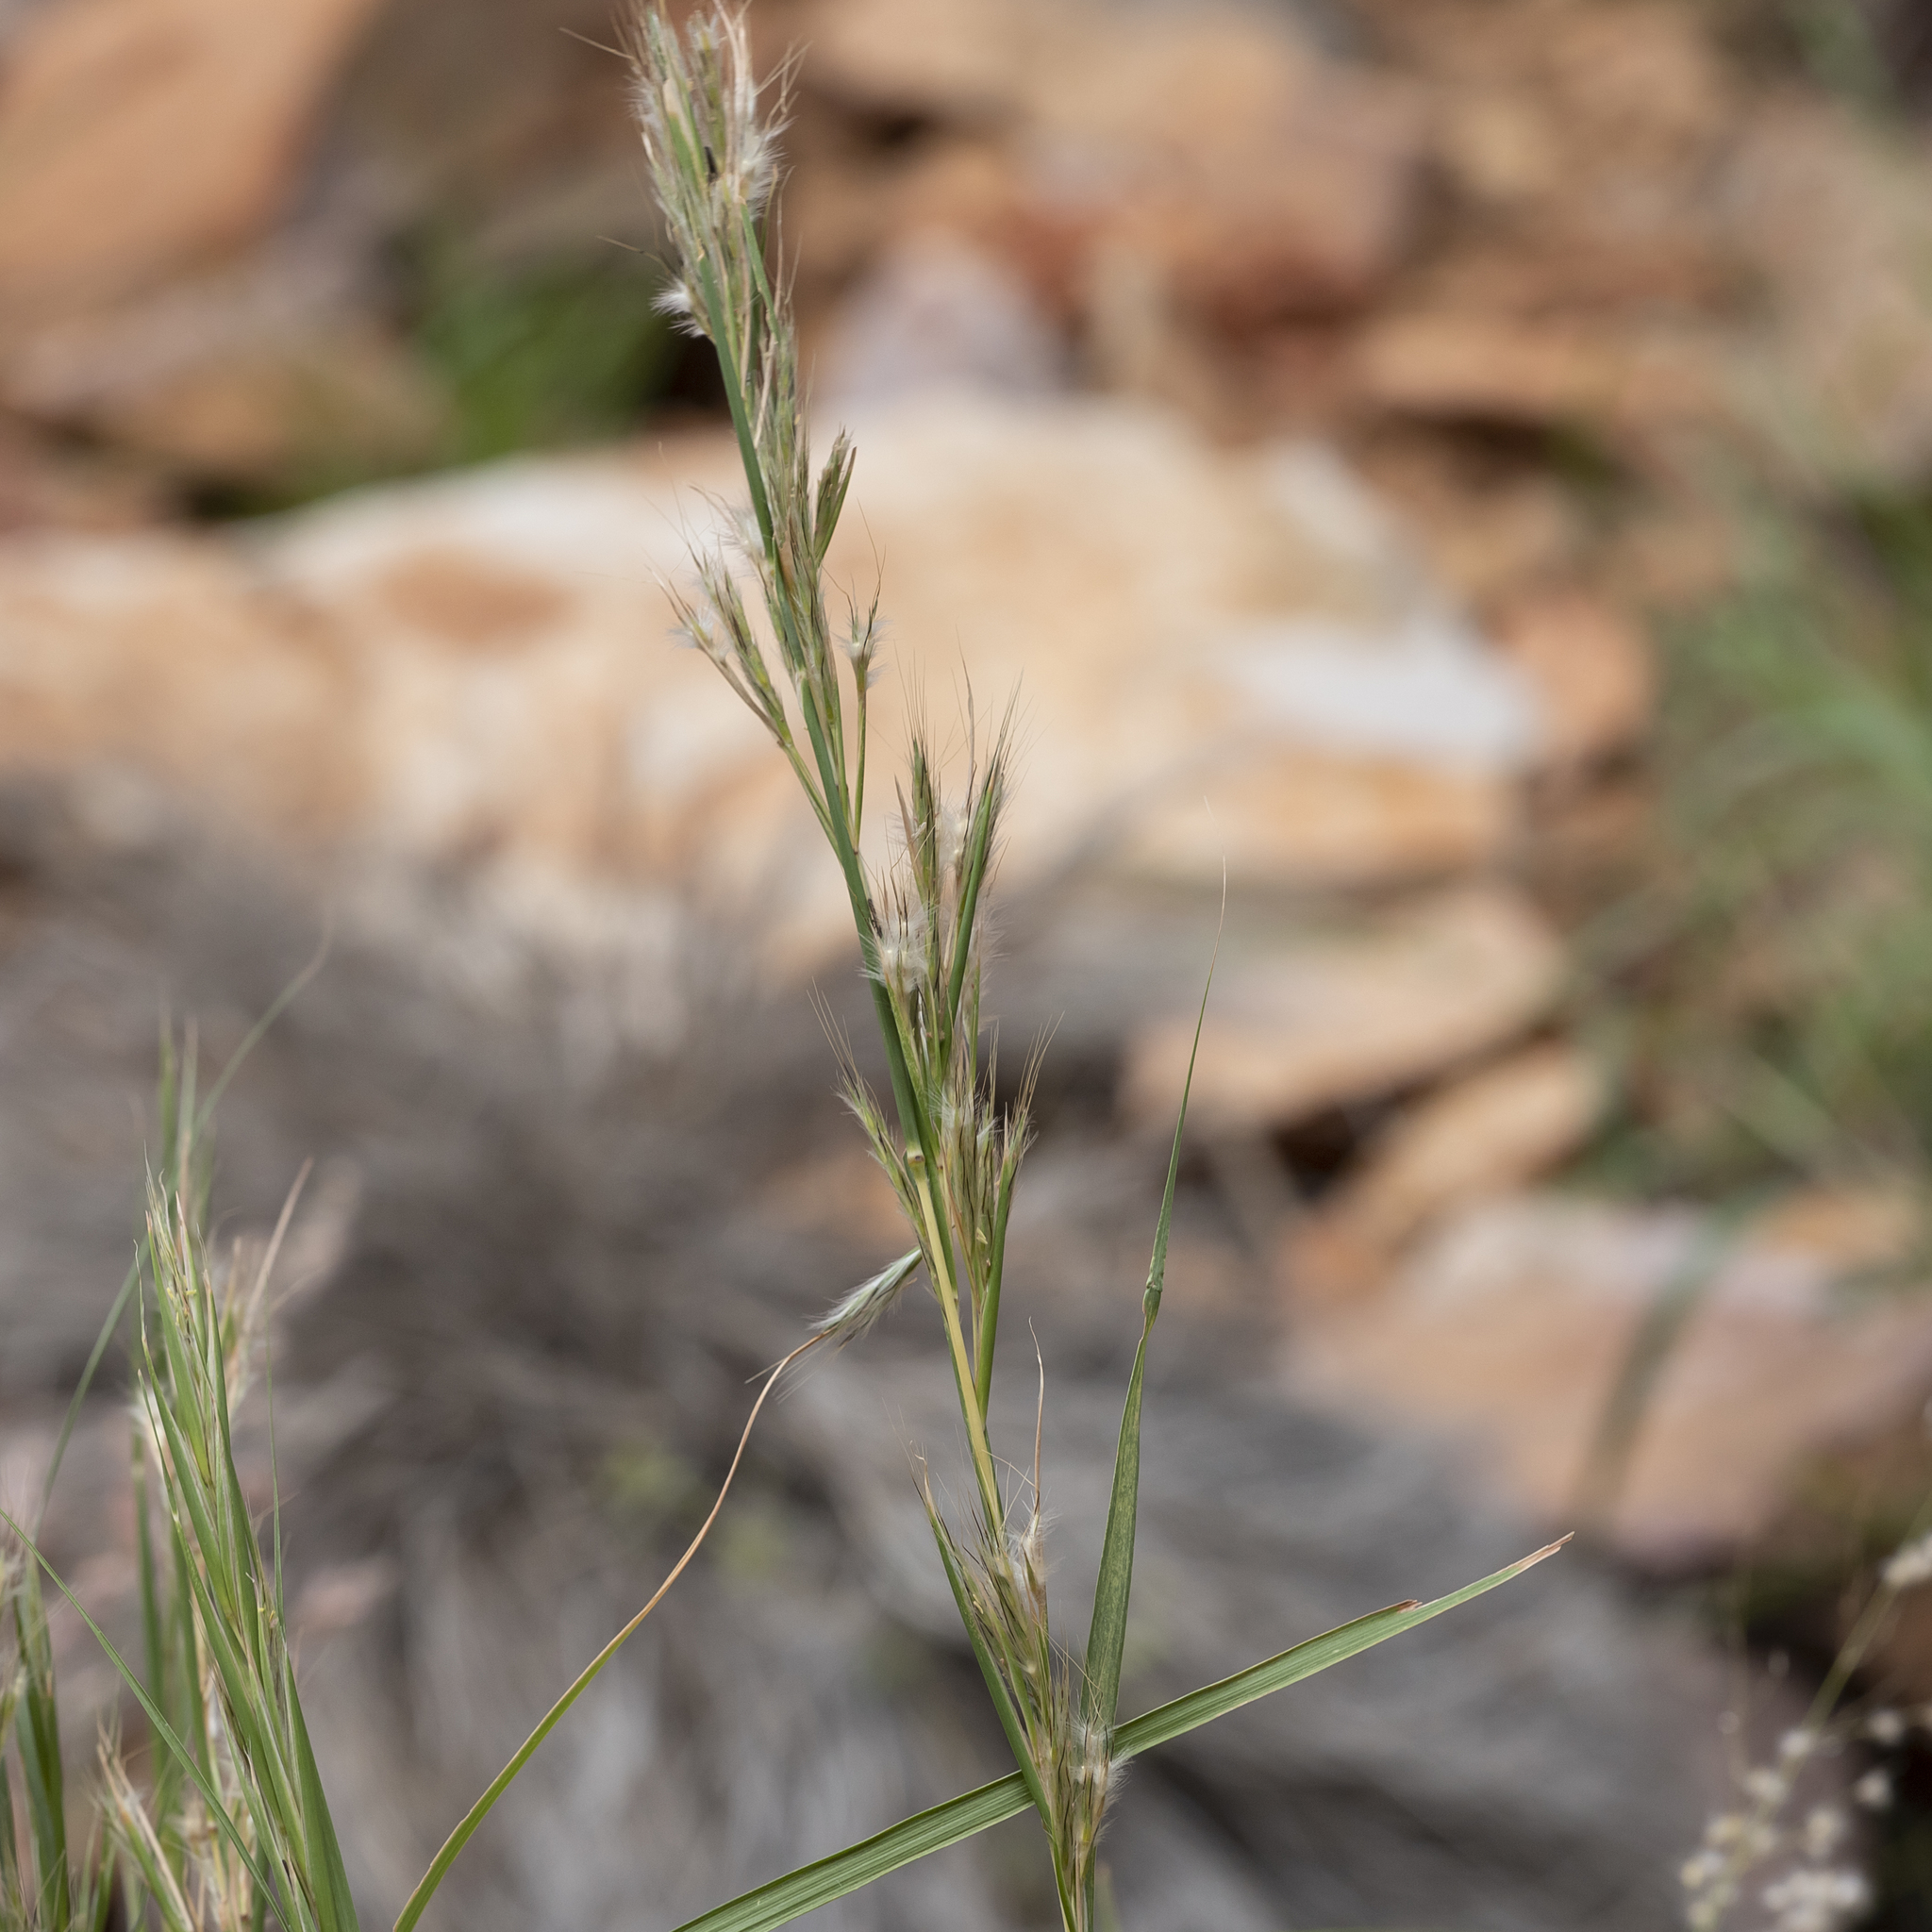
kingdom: Plantae
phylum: Tracheophyta
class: Liliopsida
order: Poales
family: Poaceae
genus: Cymbopogon
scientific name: Cymbopogon ambiguus
